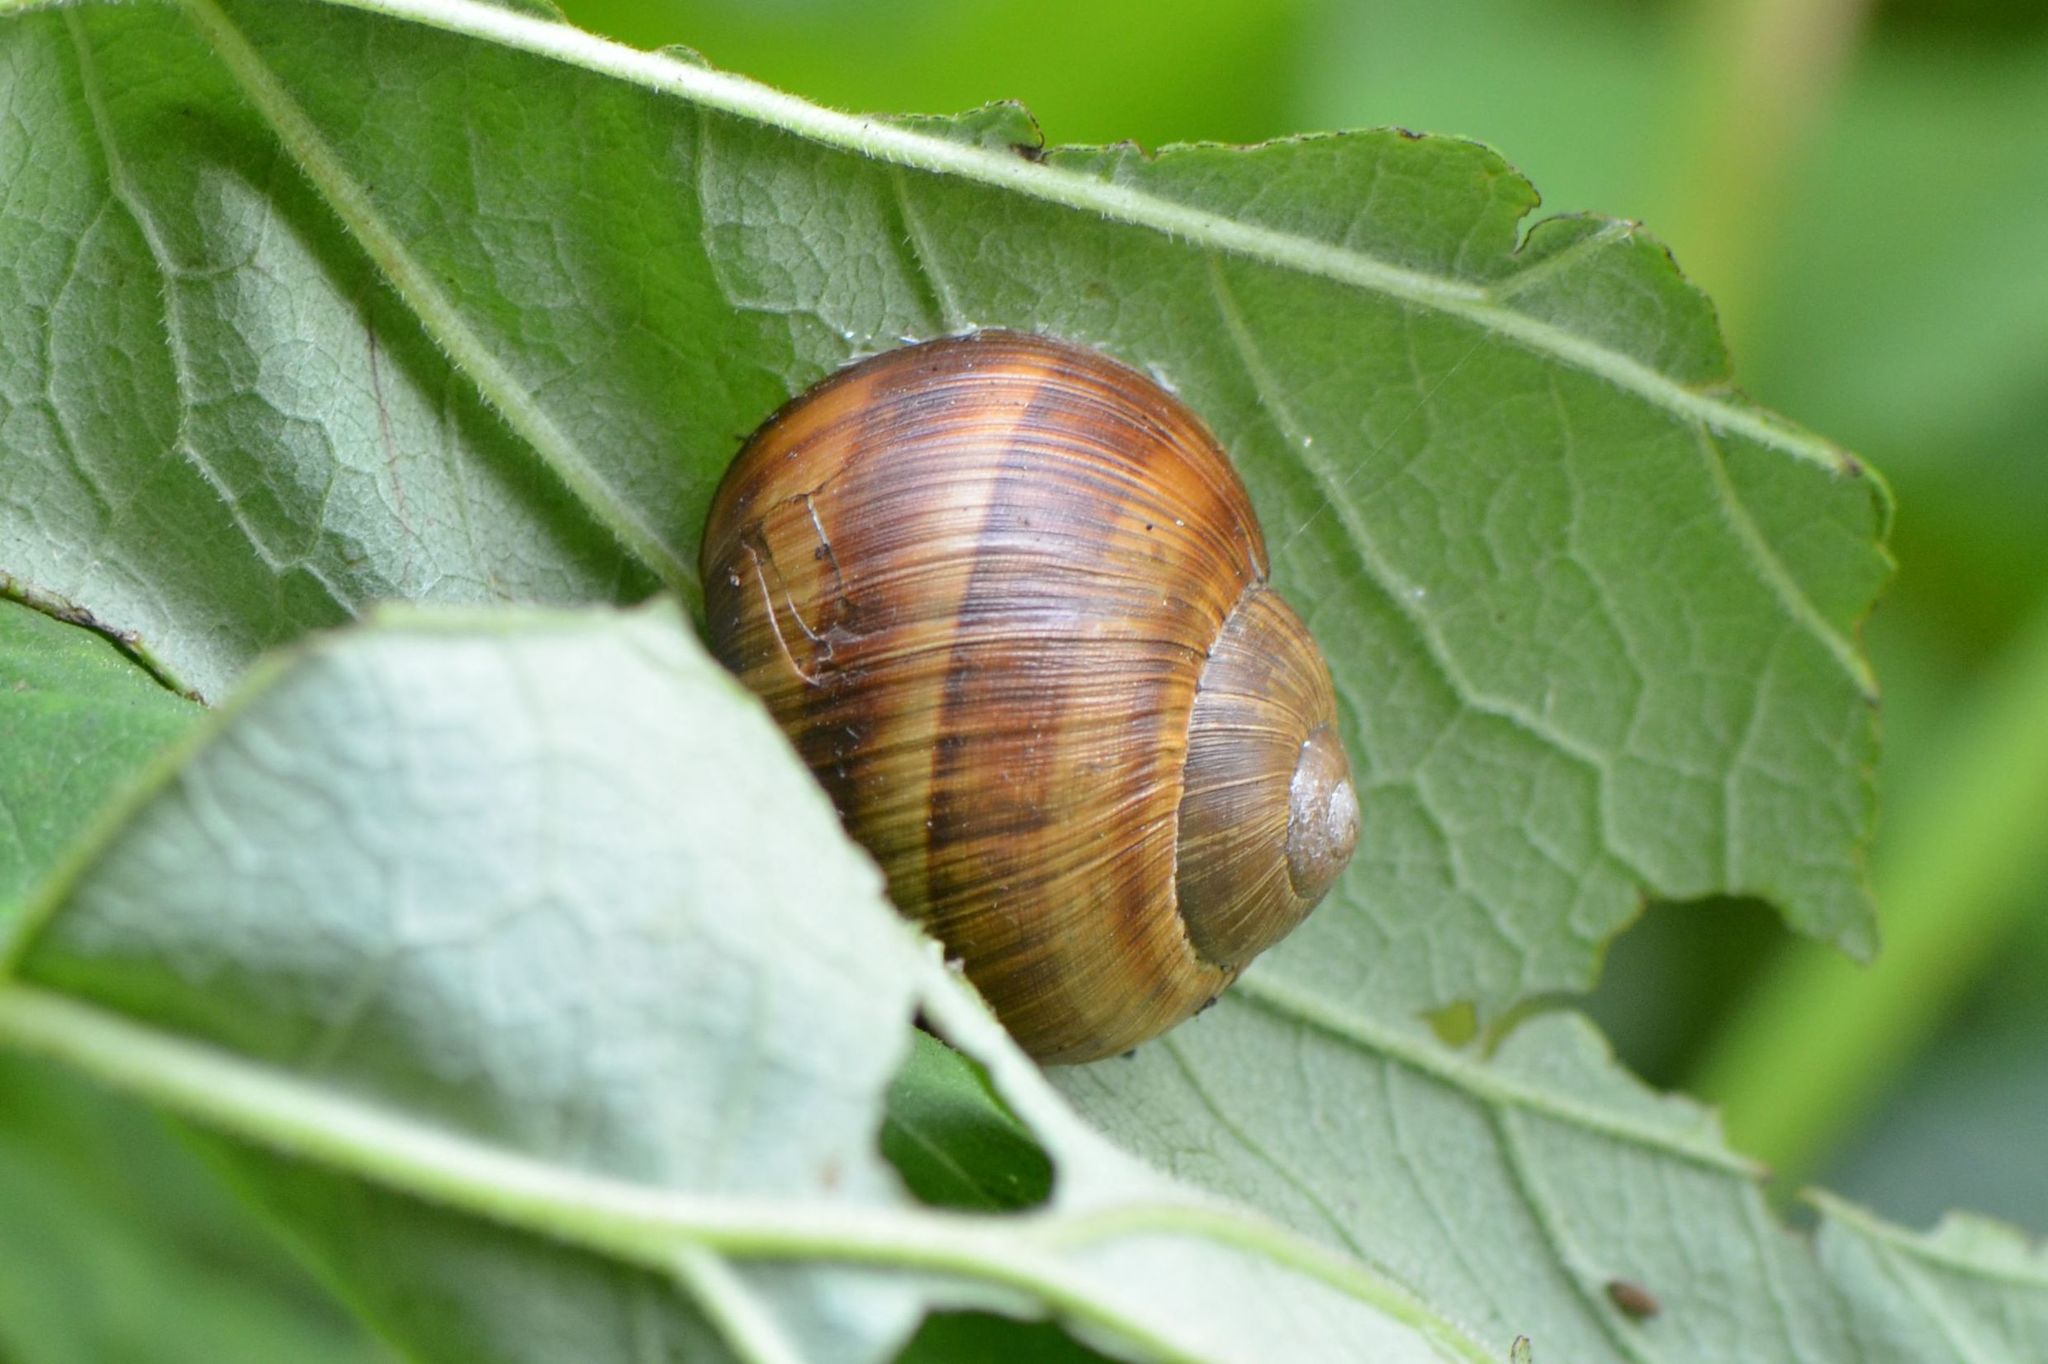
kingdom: Animalia
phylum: Mollusca
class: Gastropoda
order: Stylommatophora
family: Helicidae
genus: Helix
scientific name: Helix pomatia
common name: Roman snail
